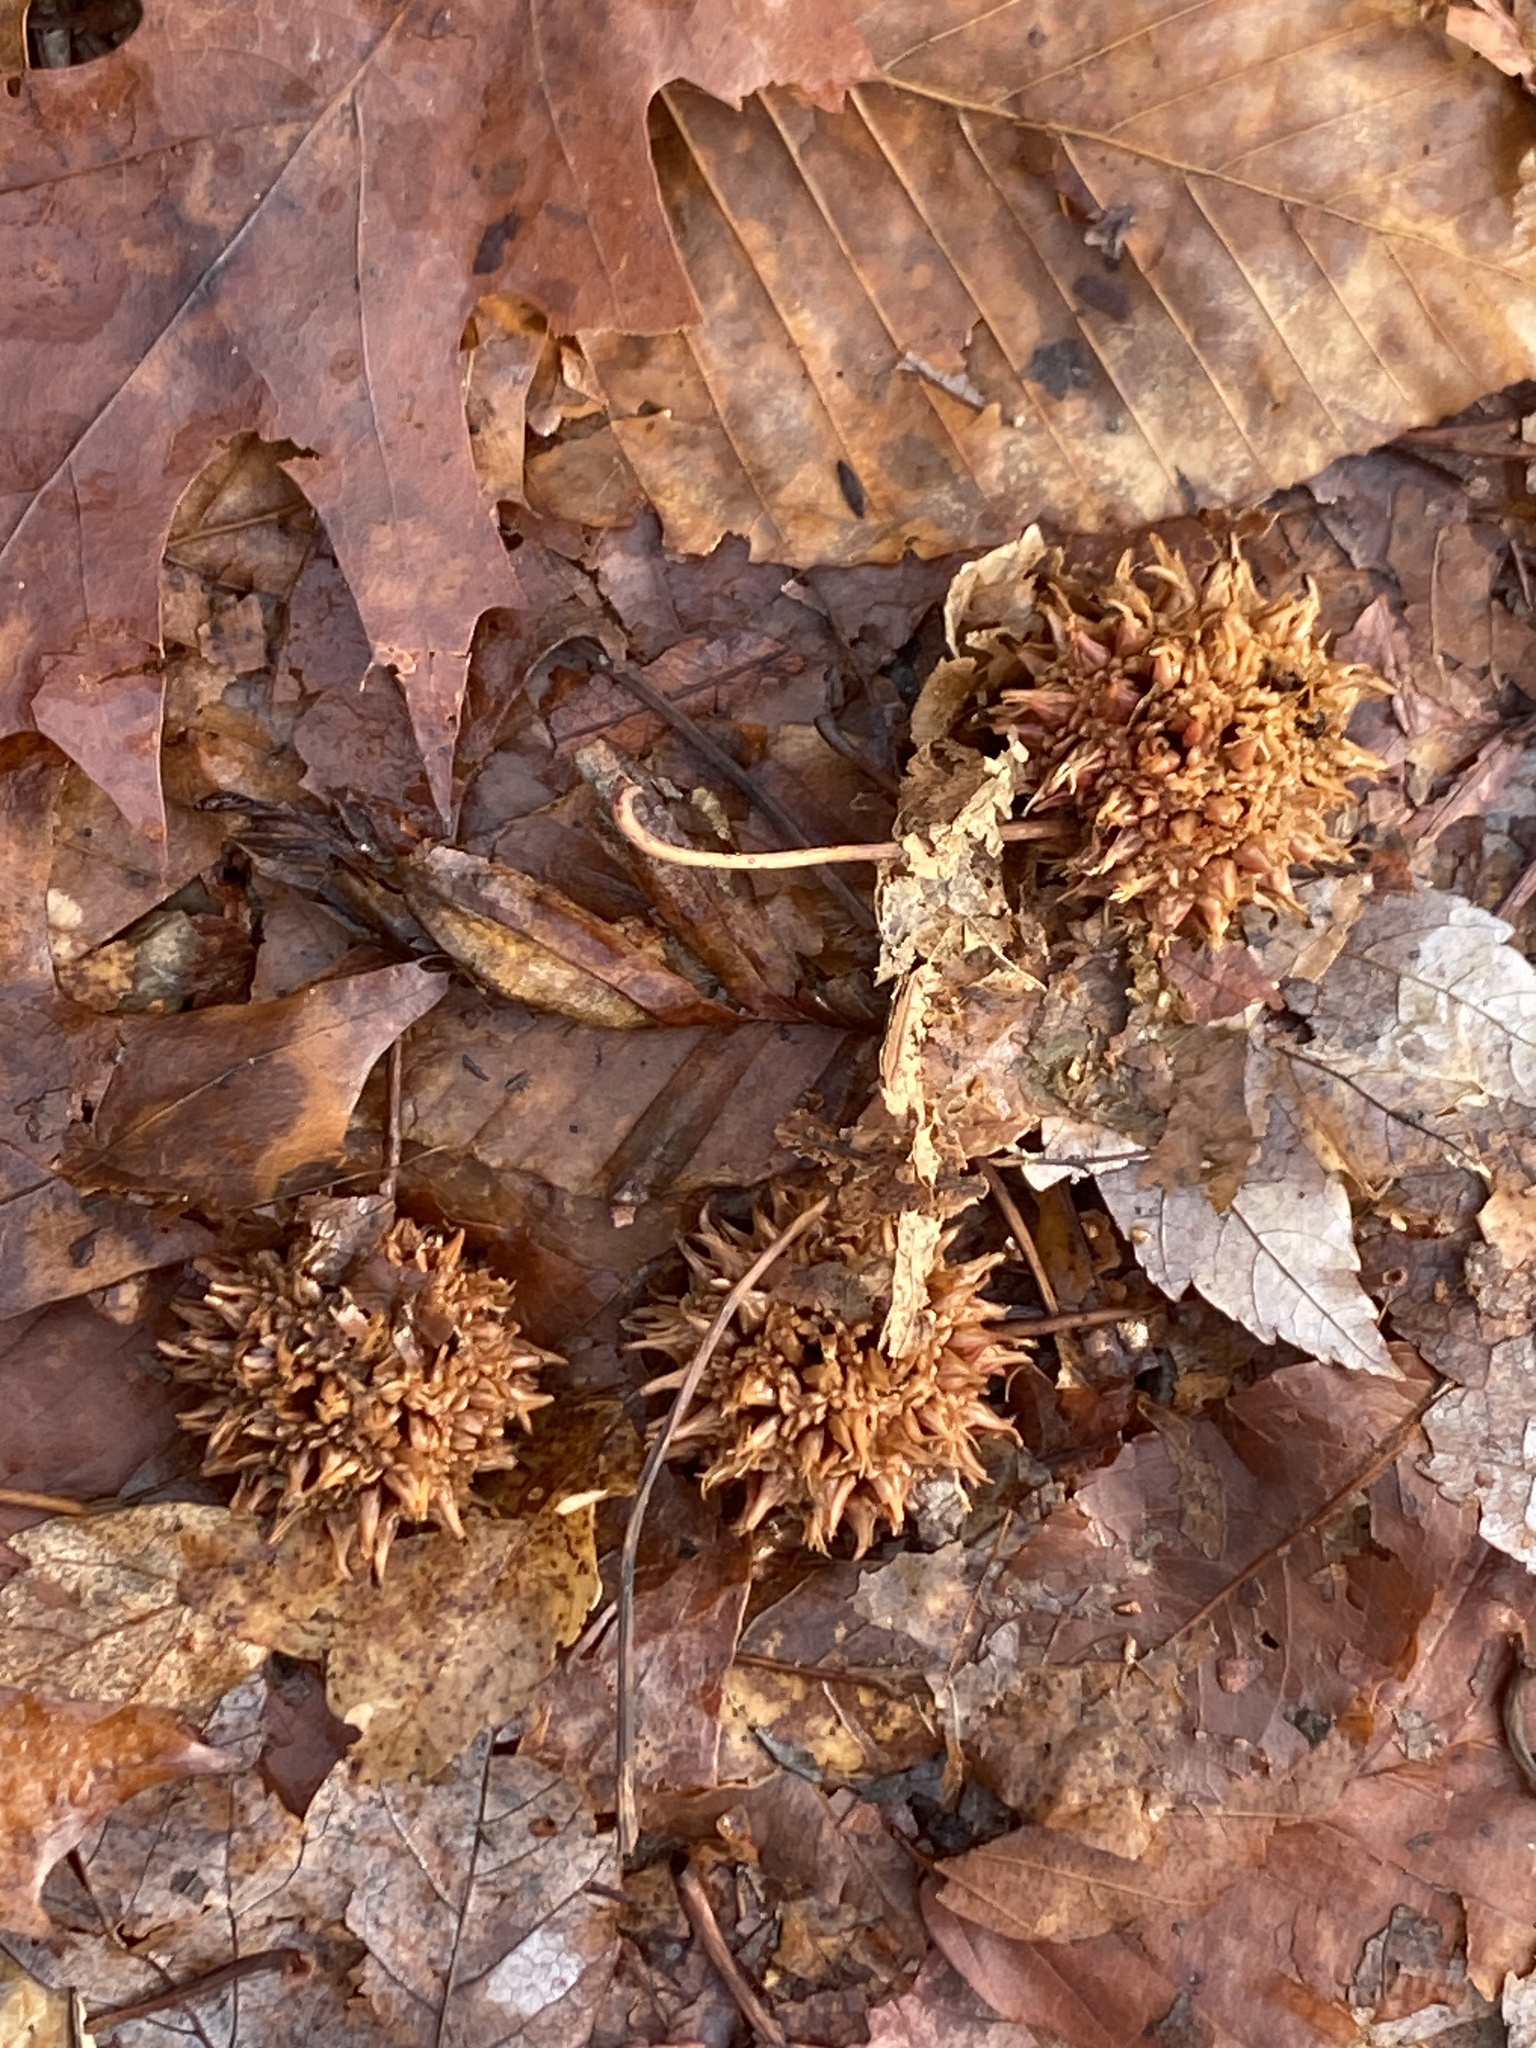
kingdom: Plantae
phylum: Tracheophyta
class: Magnoliopsida
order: Saxifragales
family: Altingiaceae
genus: Liquidambar
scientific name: Liquidambar styraciflua
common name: Sweet gum
